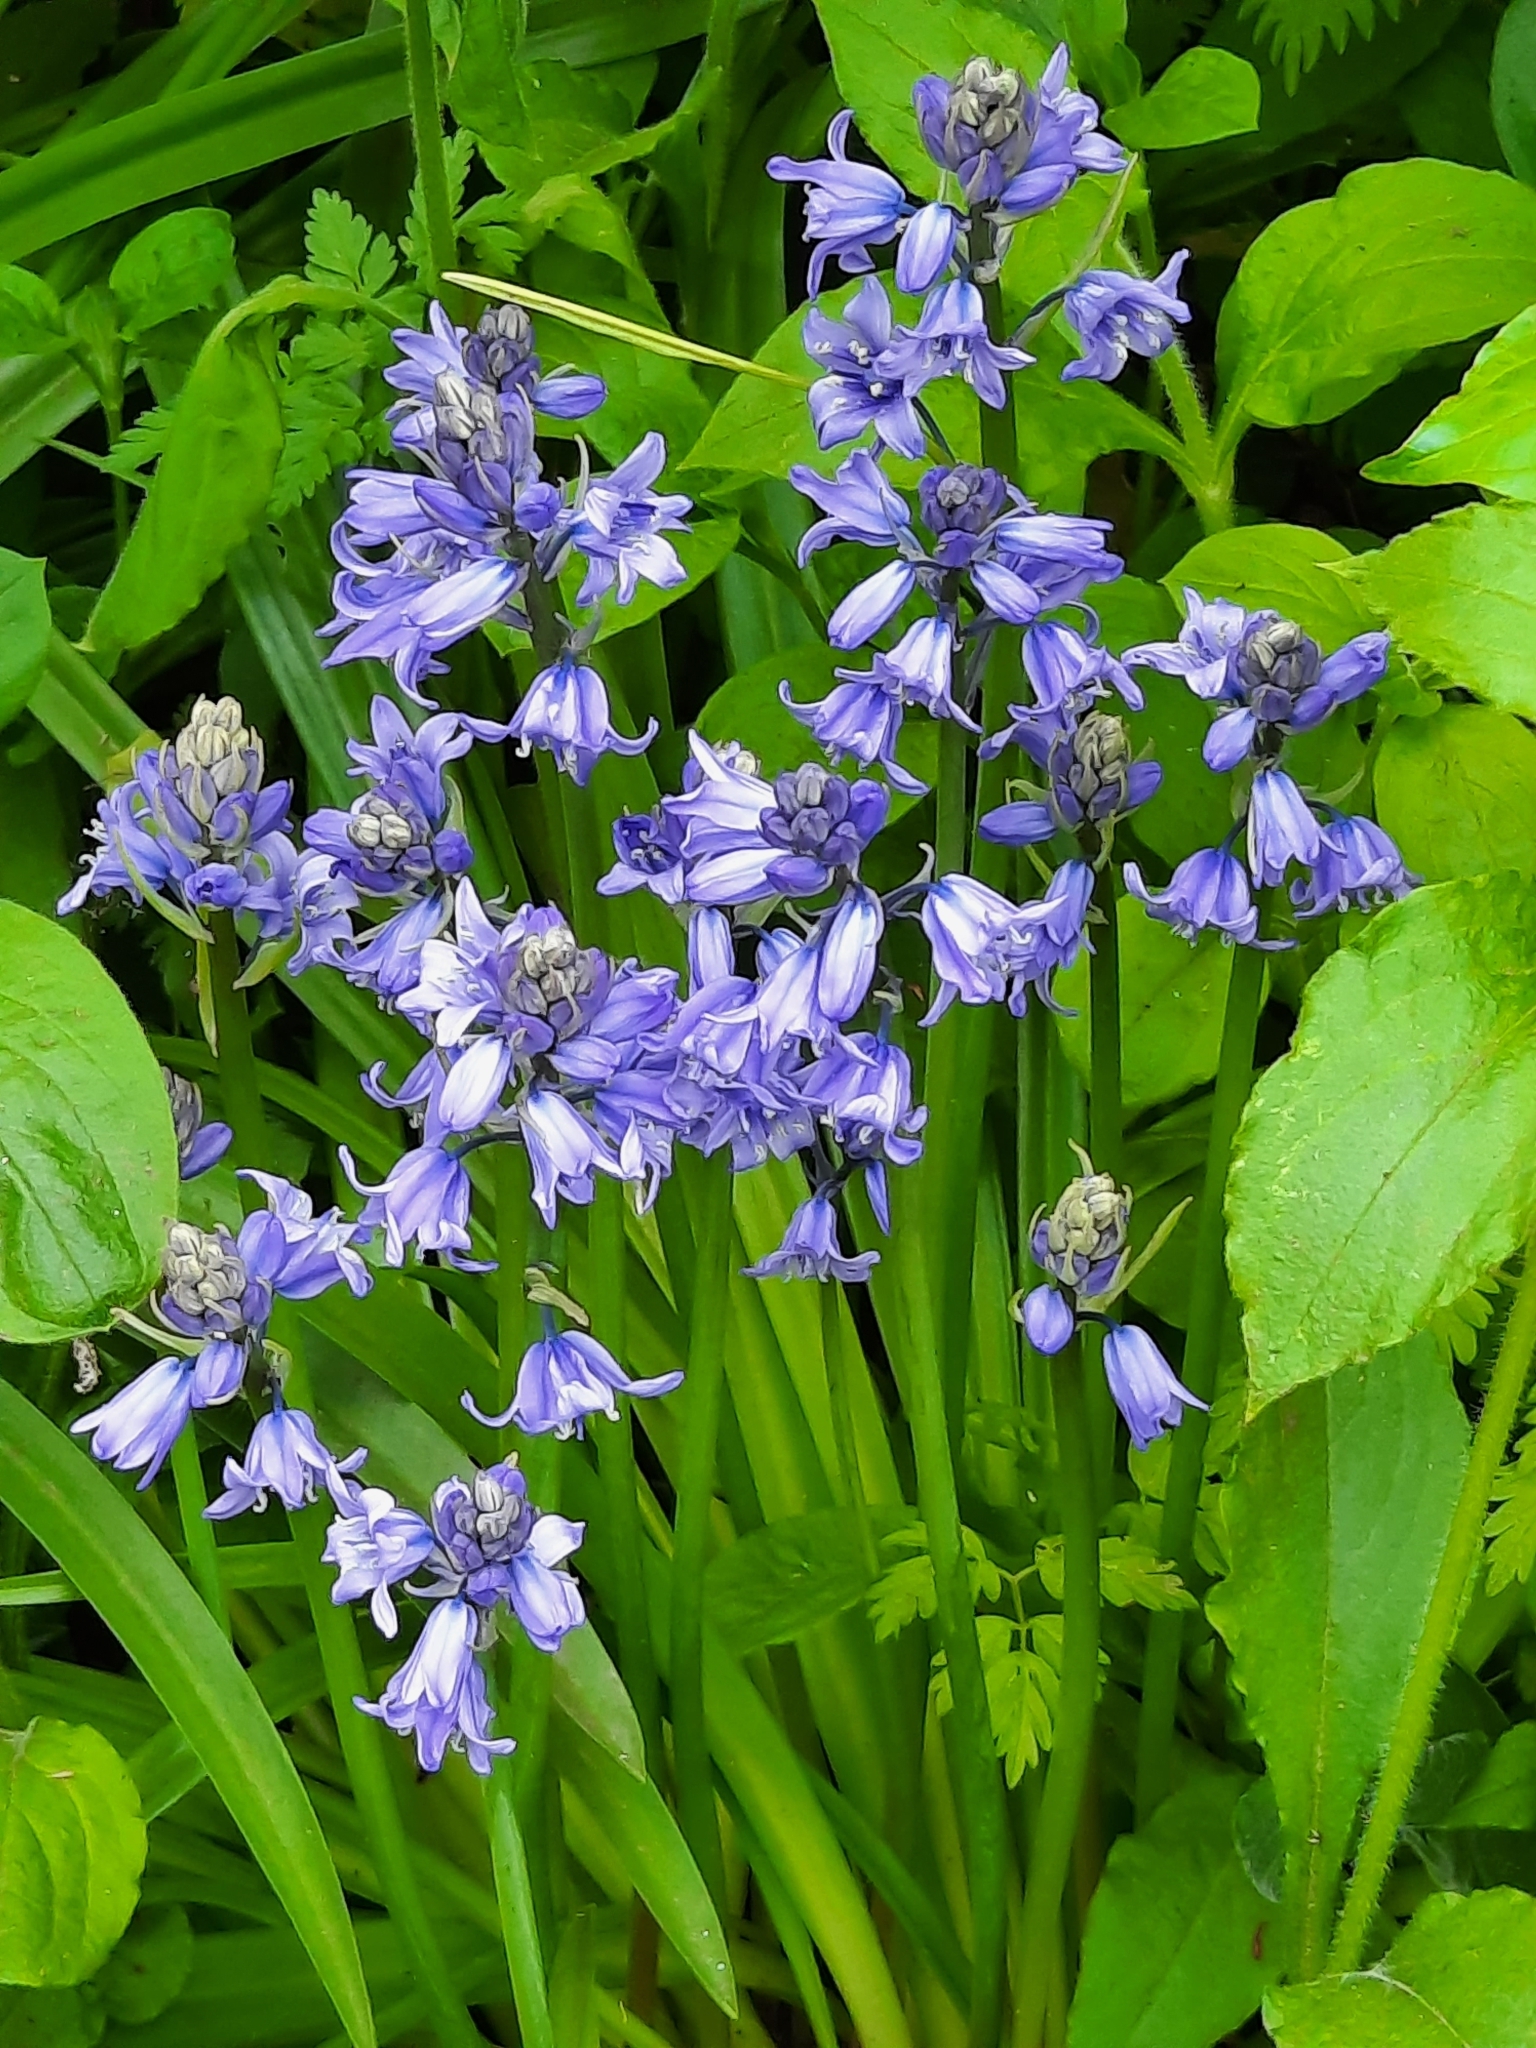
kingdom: Plantae
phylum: Tracheophyta
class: Liliopsida
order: Asparagales
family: Asparagaceae
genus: Hyacinthoides
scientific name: Hyacinthoides massartiana
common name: Hyacinthoides
